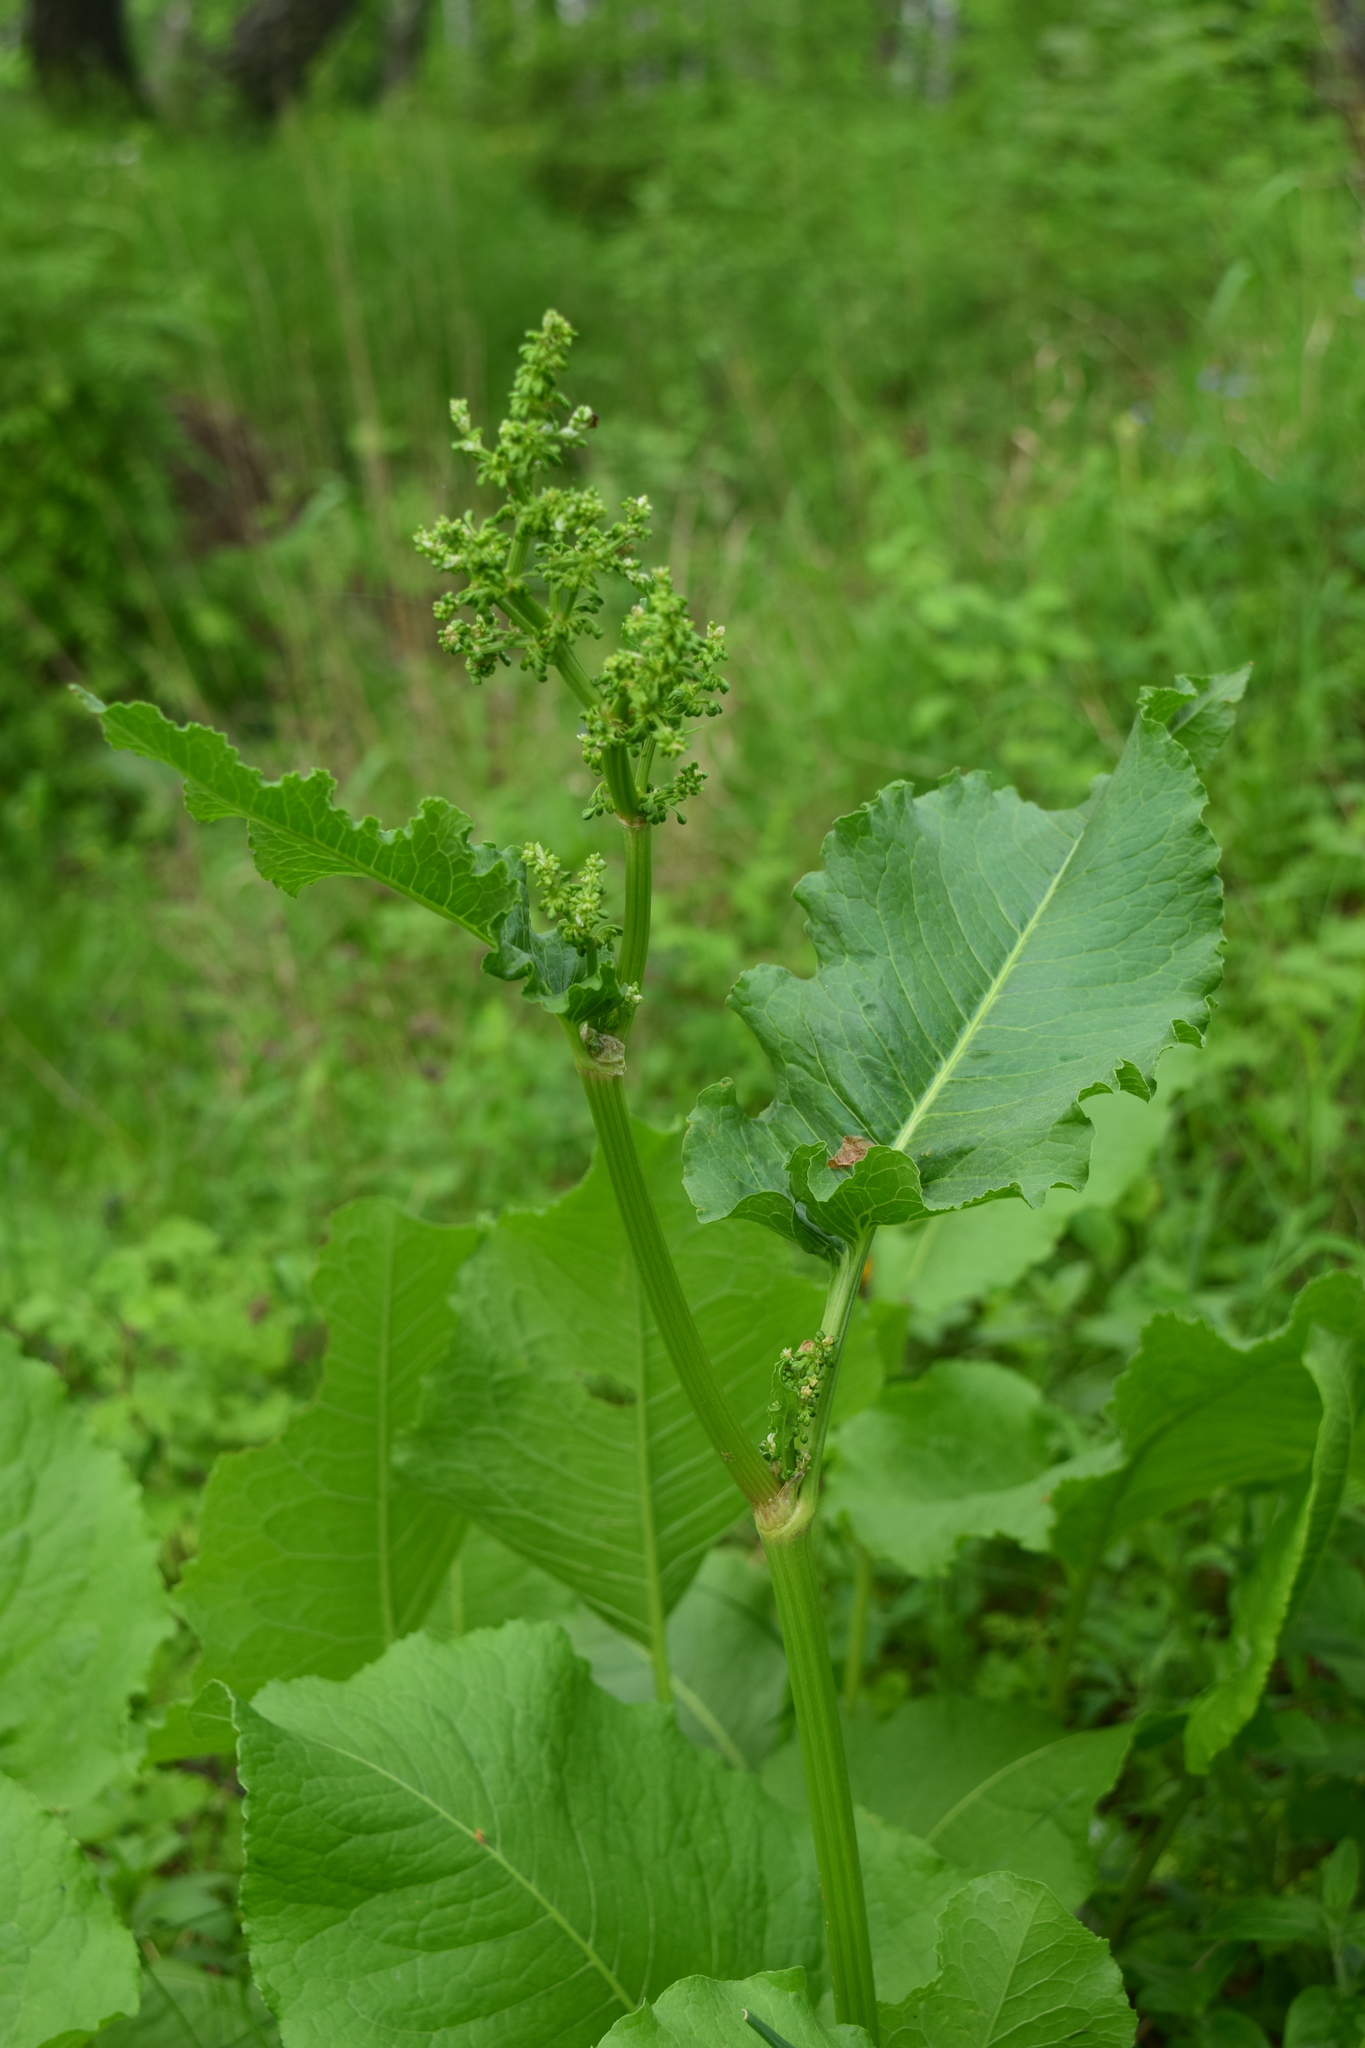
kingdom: Plantae
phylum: Tracheophyta
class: Magnoliopsida
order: Caryophyllales
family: Polygonaceae
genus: Rumex
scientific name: Rumex confertus
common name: Russian dock
